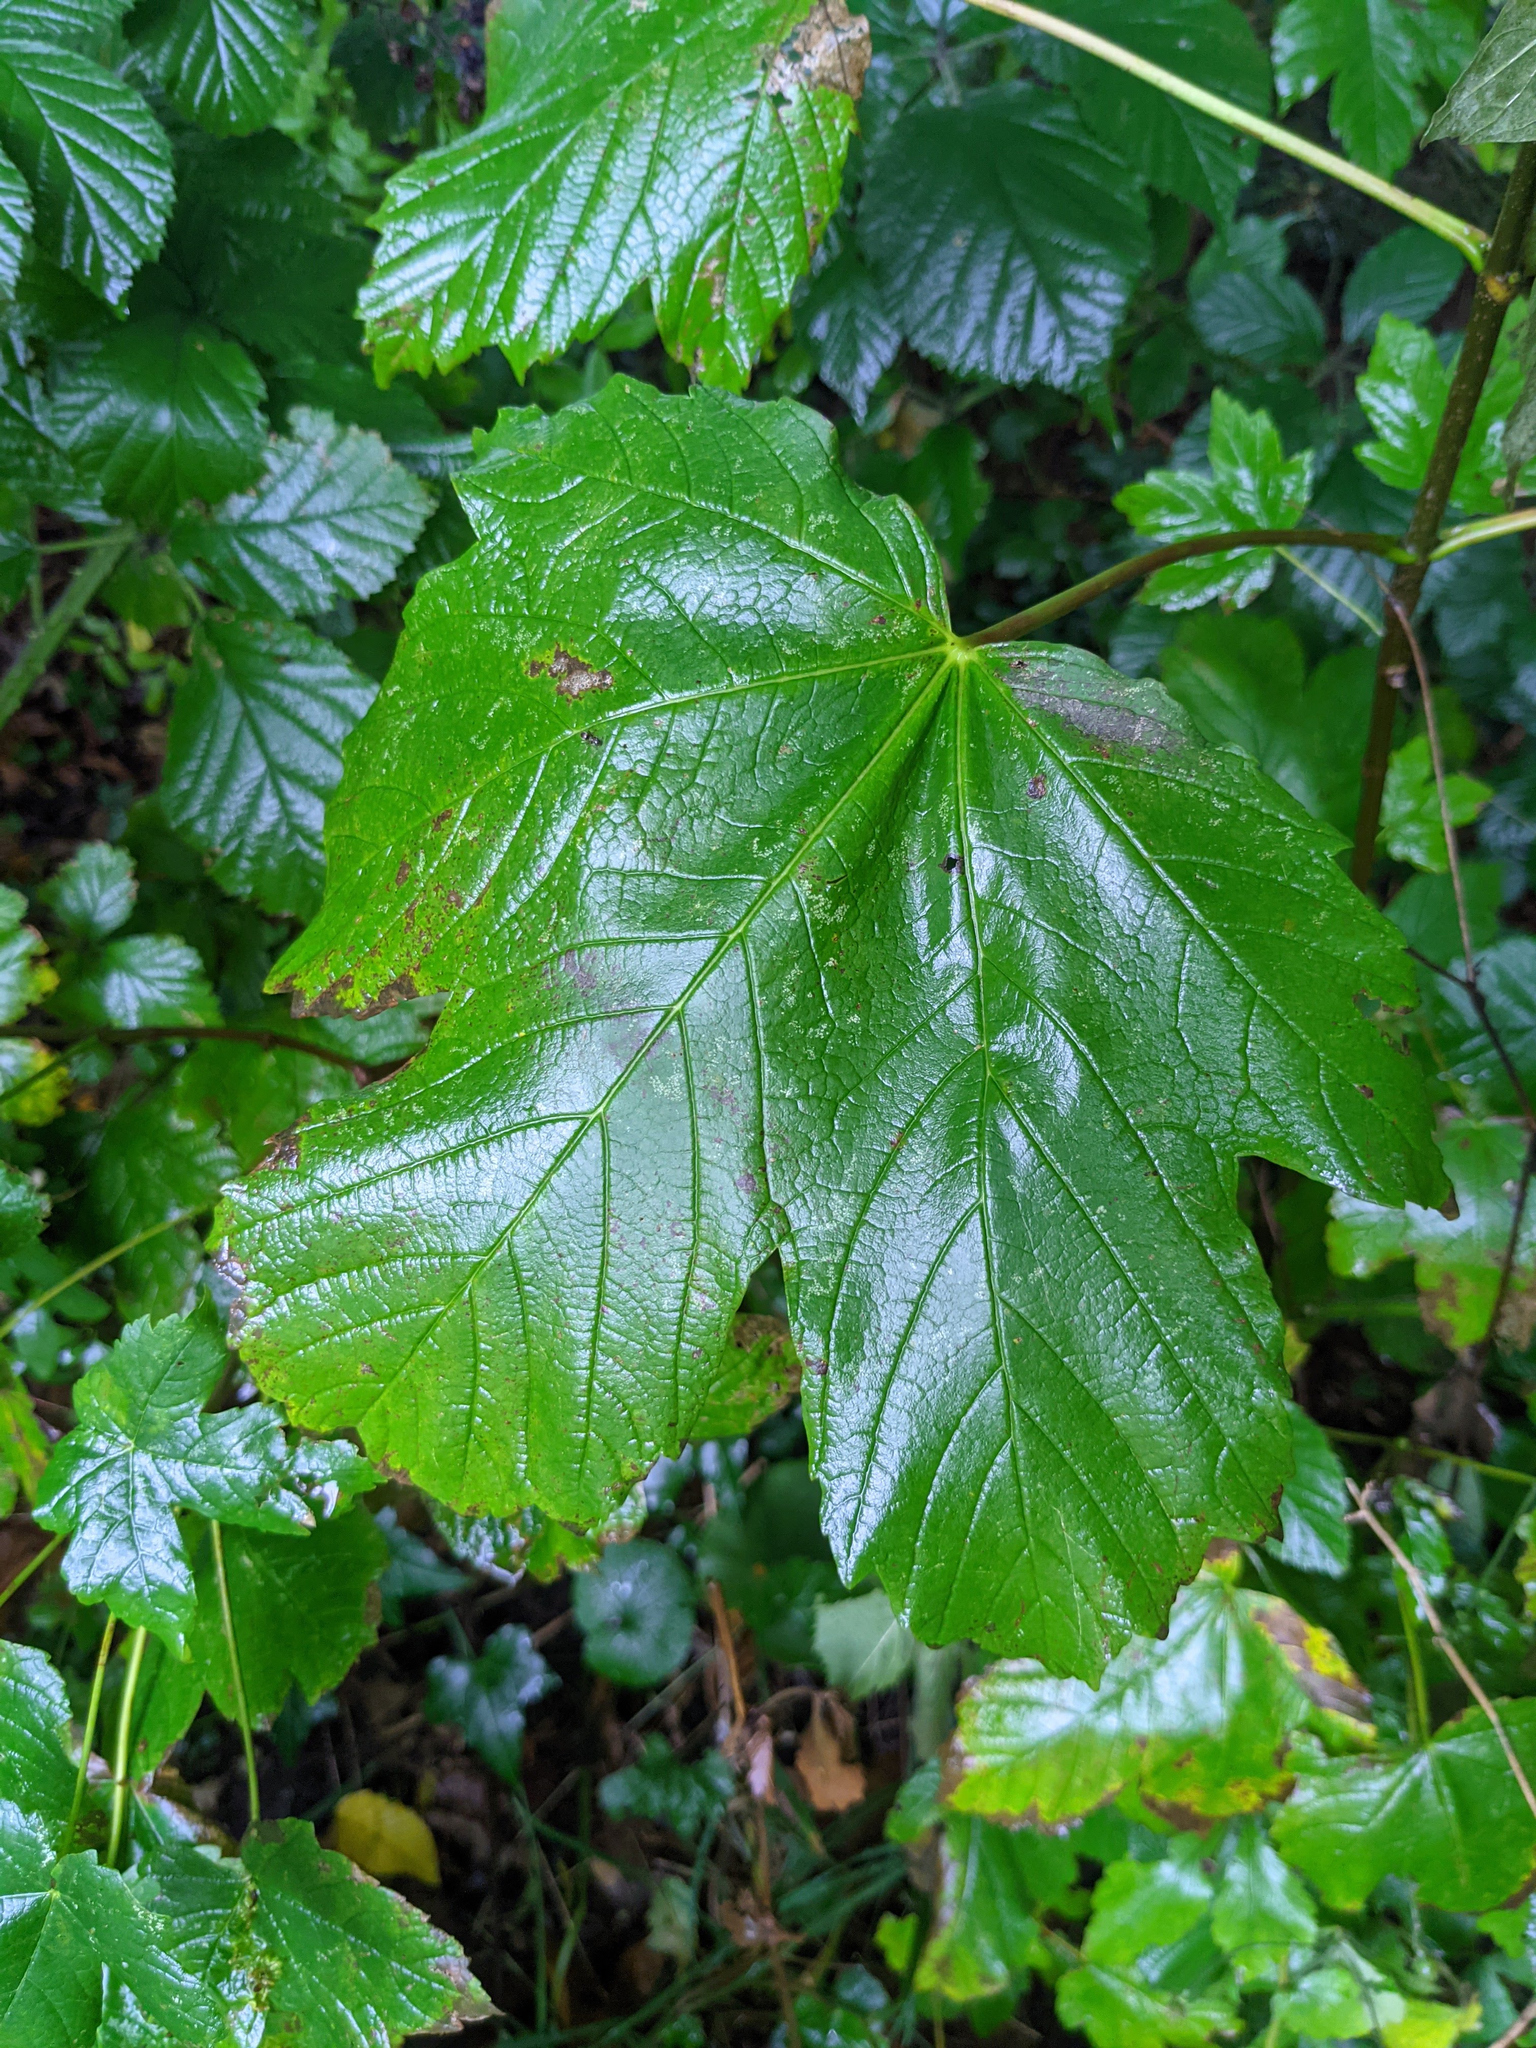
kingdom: Plantae
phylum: Tracheophyta
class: Magnoliopsida
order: Sapindales
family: Sapindaceae
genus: Acer
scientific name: Acer pseudoplatanus
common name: Sycamore
